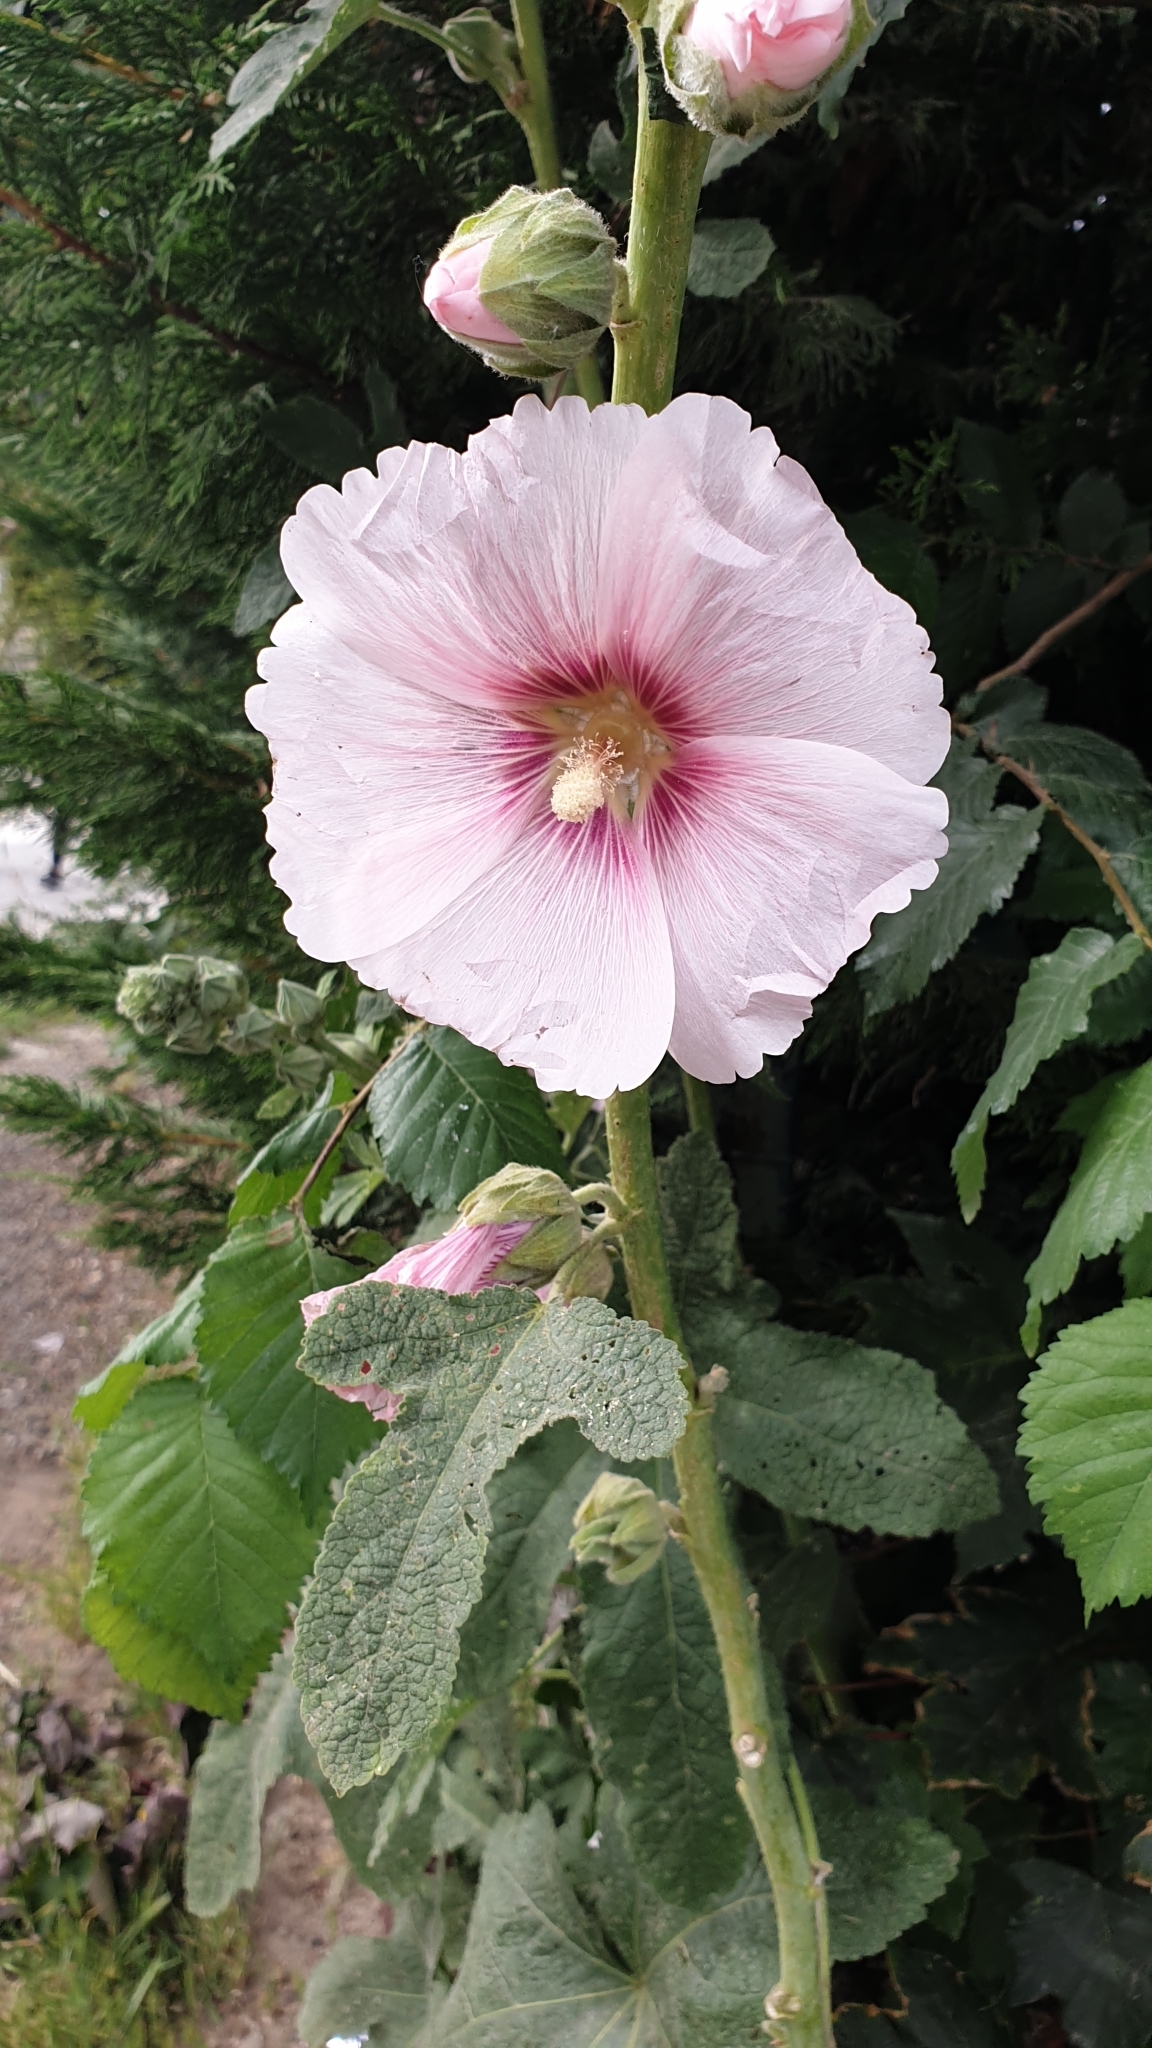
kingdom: Plantae
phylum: Tracheophyta
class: Magnoliopsida
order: Malvales
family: Malvaceae
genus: Alcea
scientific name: Alcea rosea
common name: Hollyhock
